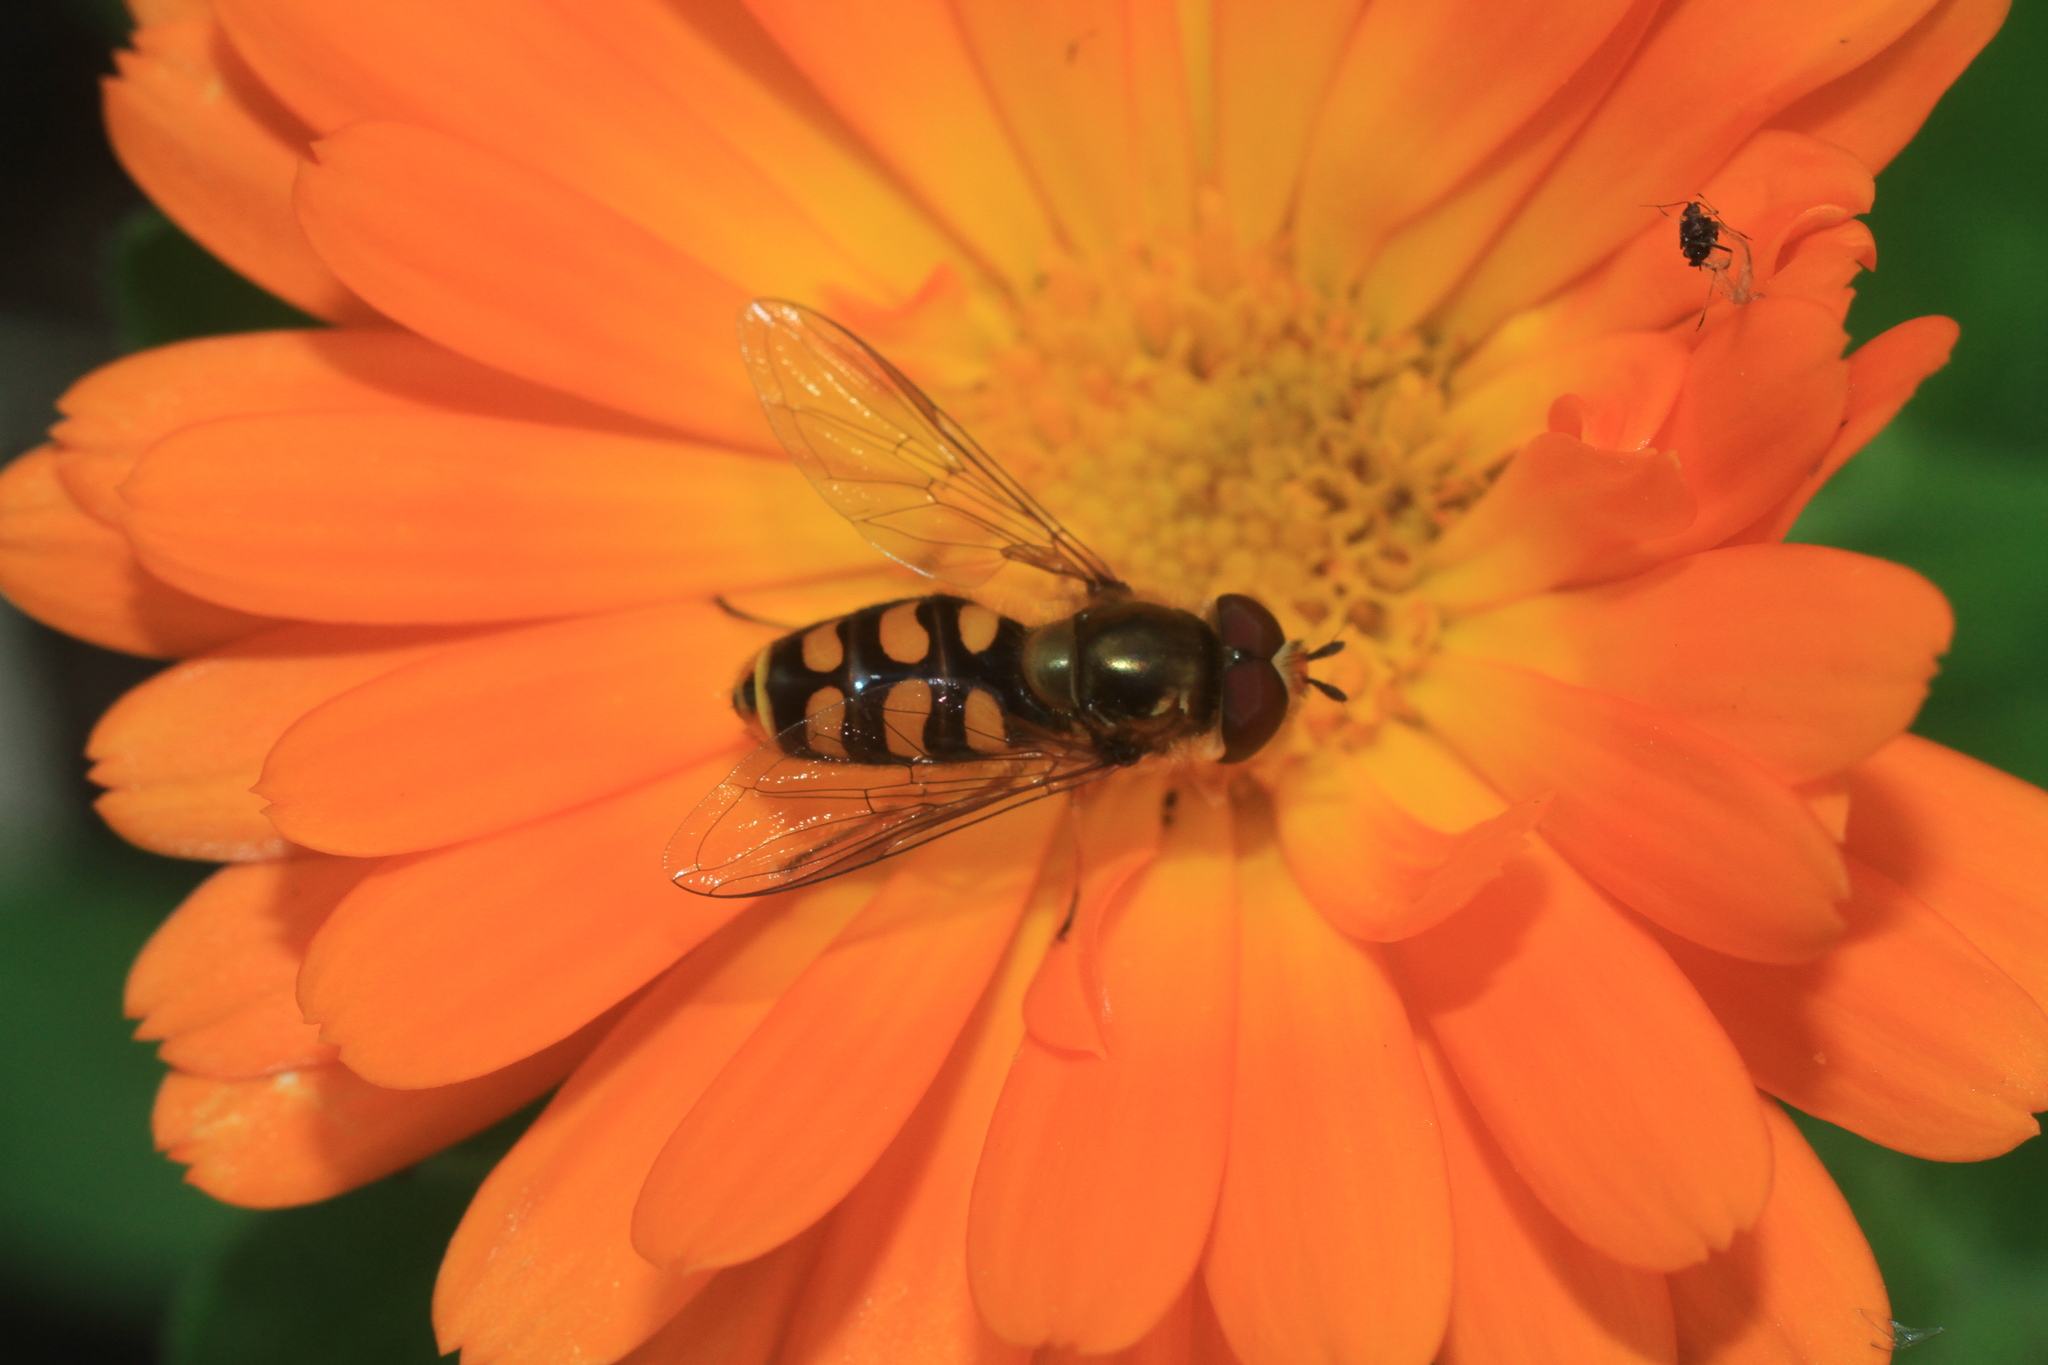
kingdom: Animalia
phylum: Arthropoda
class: Insecta
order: Diptera
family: Syrphidae
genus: Eupeodes
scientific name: Eupeodes
